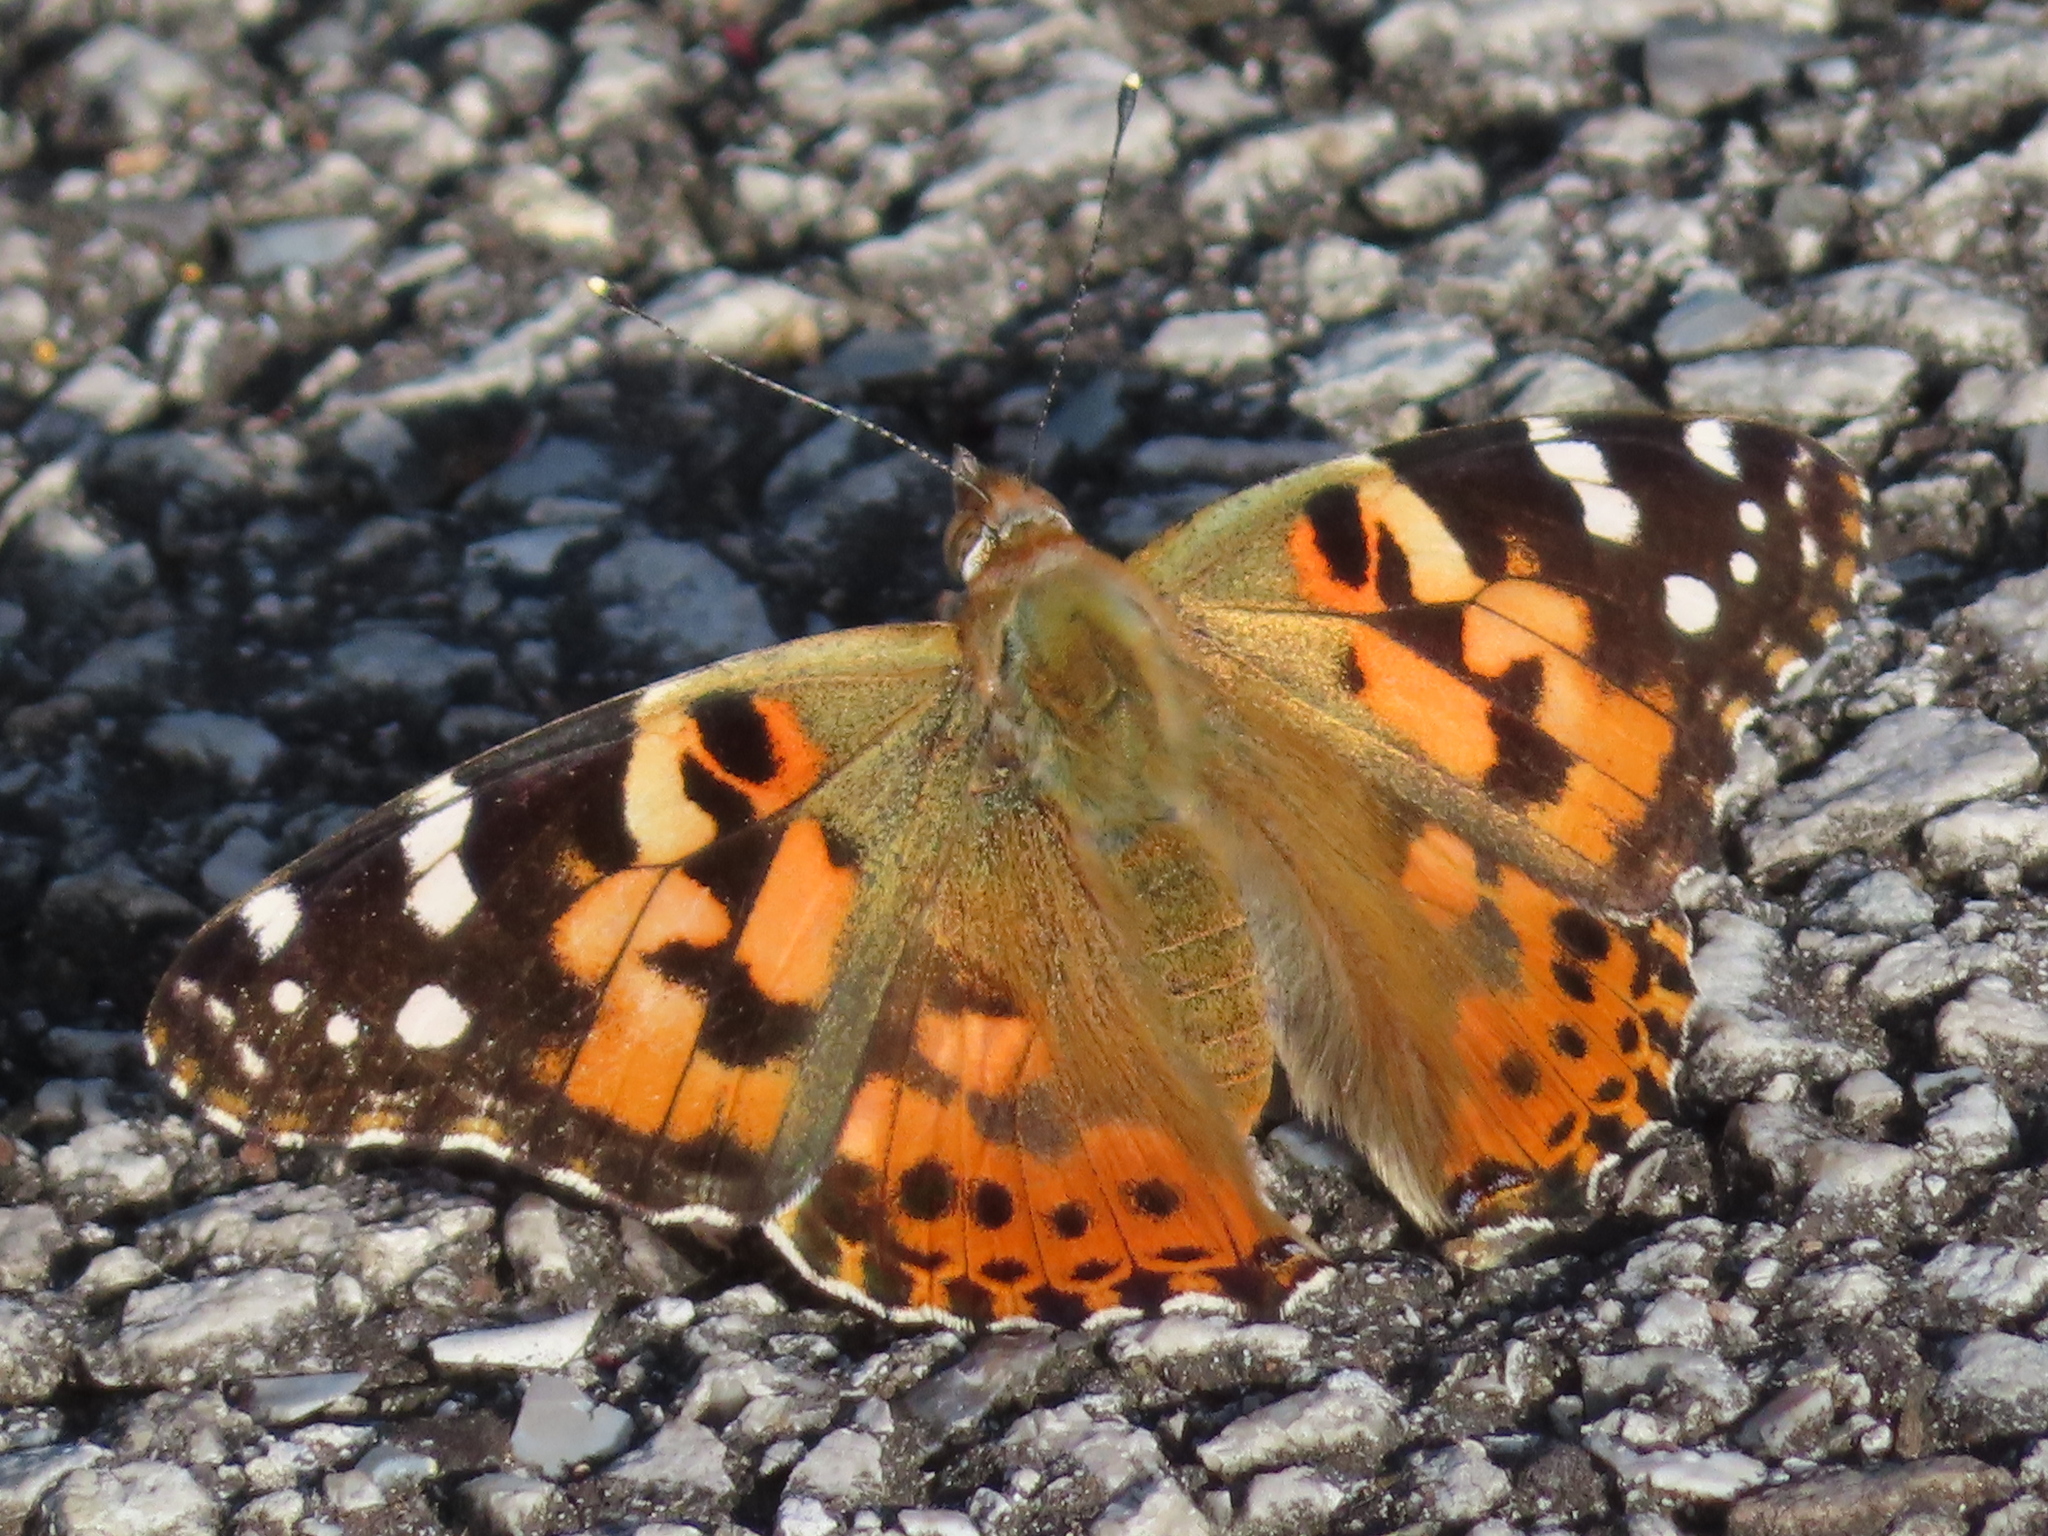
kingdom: Animalia
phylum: Arthropoda
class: Insecta
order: Lepidoptera
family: Nymphalidae
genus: Vanessa
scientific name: Vanessa cardui
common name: Painted lady
